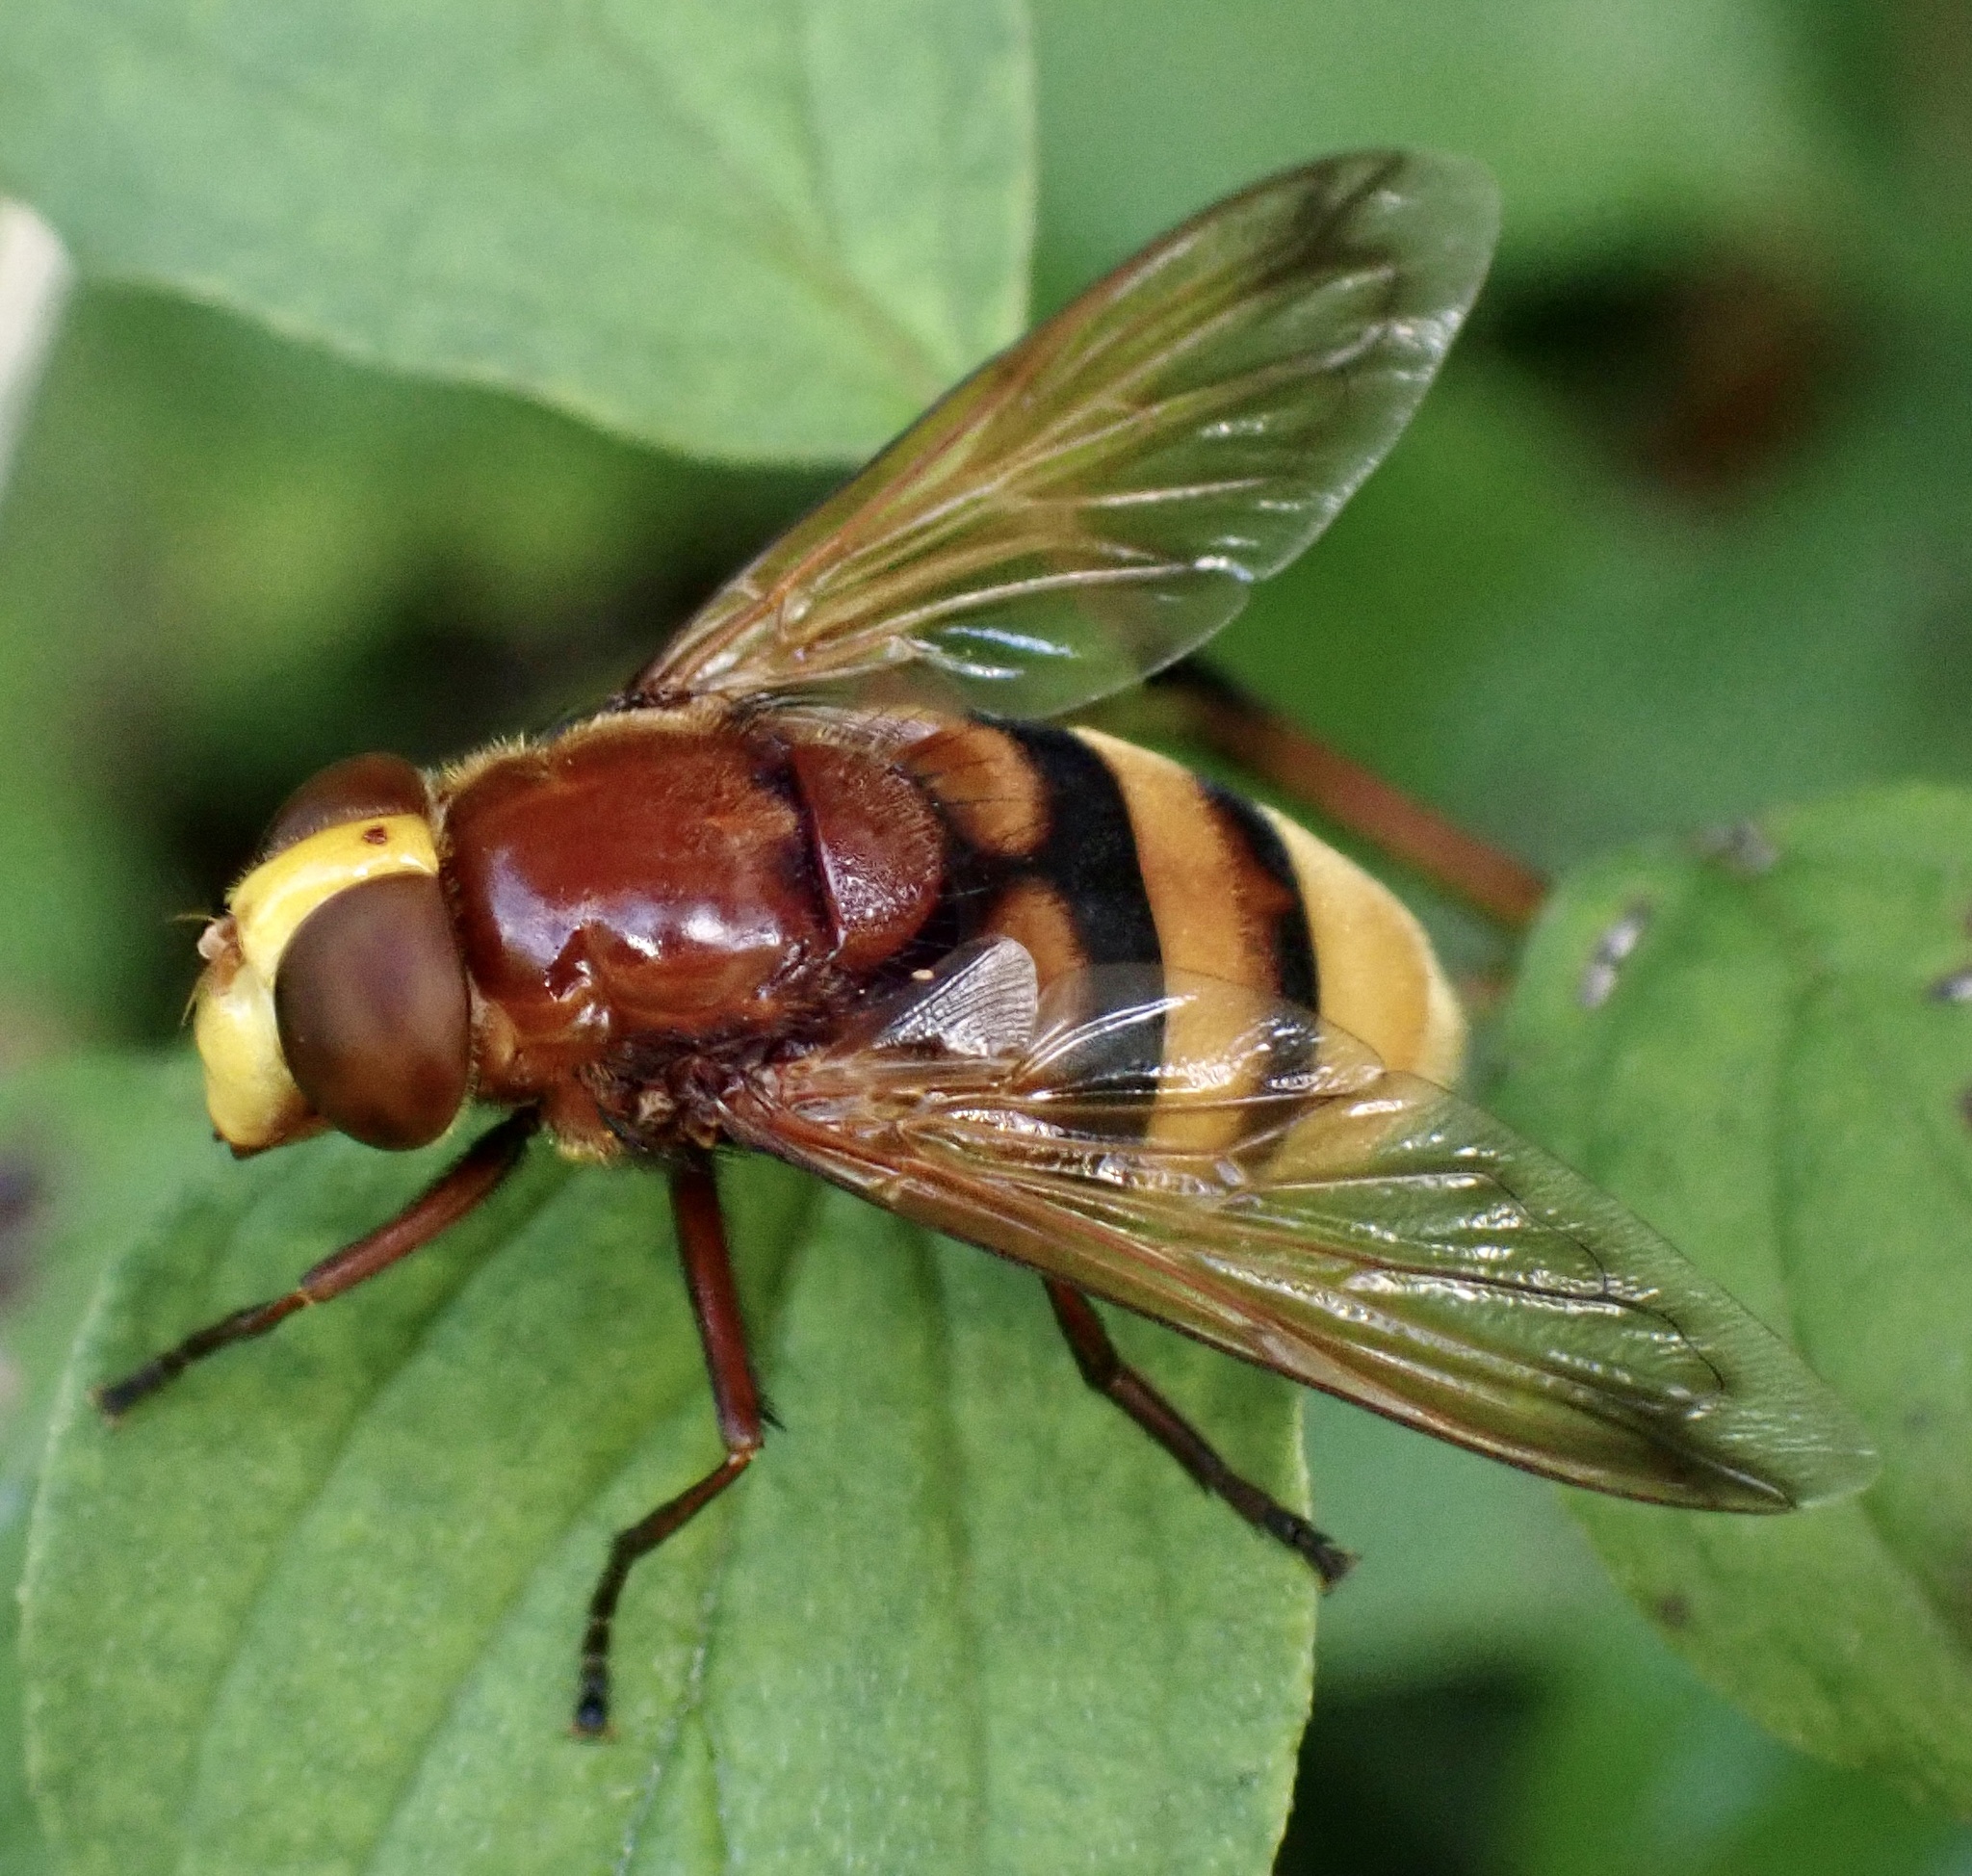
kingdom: Animalia
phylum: Arthropoda
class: Insecta
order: Diptera
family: Syrphidae
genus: Volucella
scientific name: Volucella zonaria
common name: Hornet hoverfly
